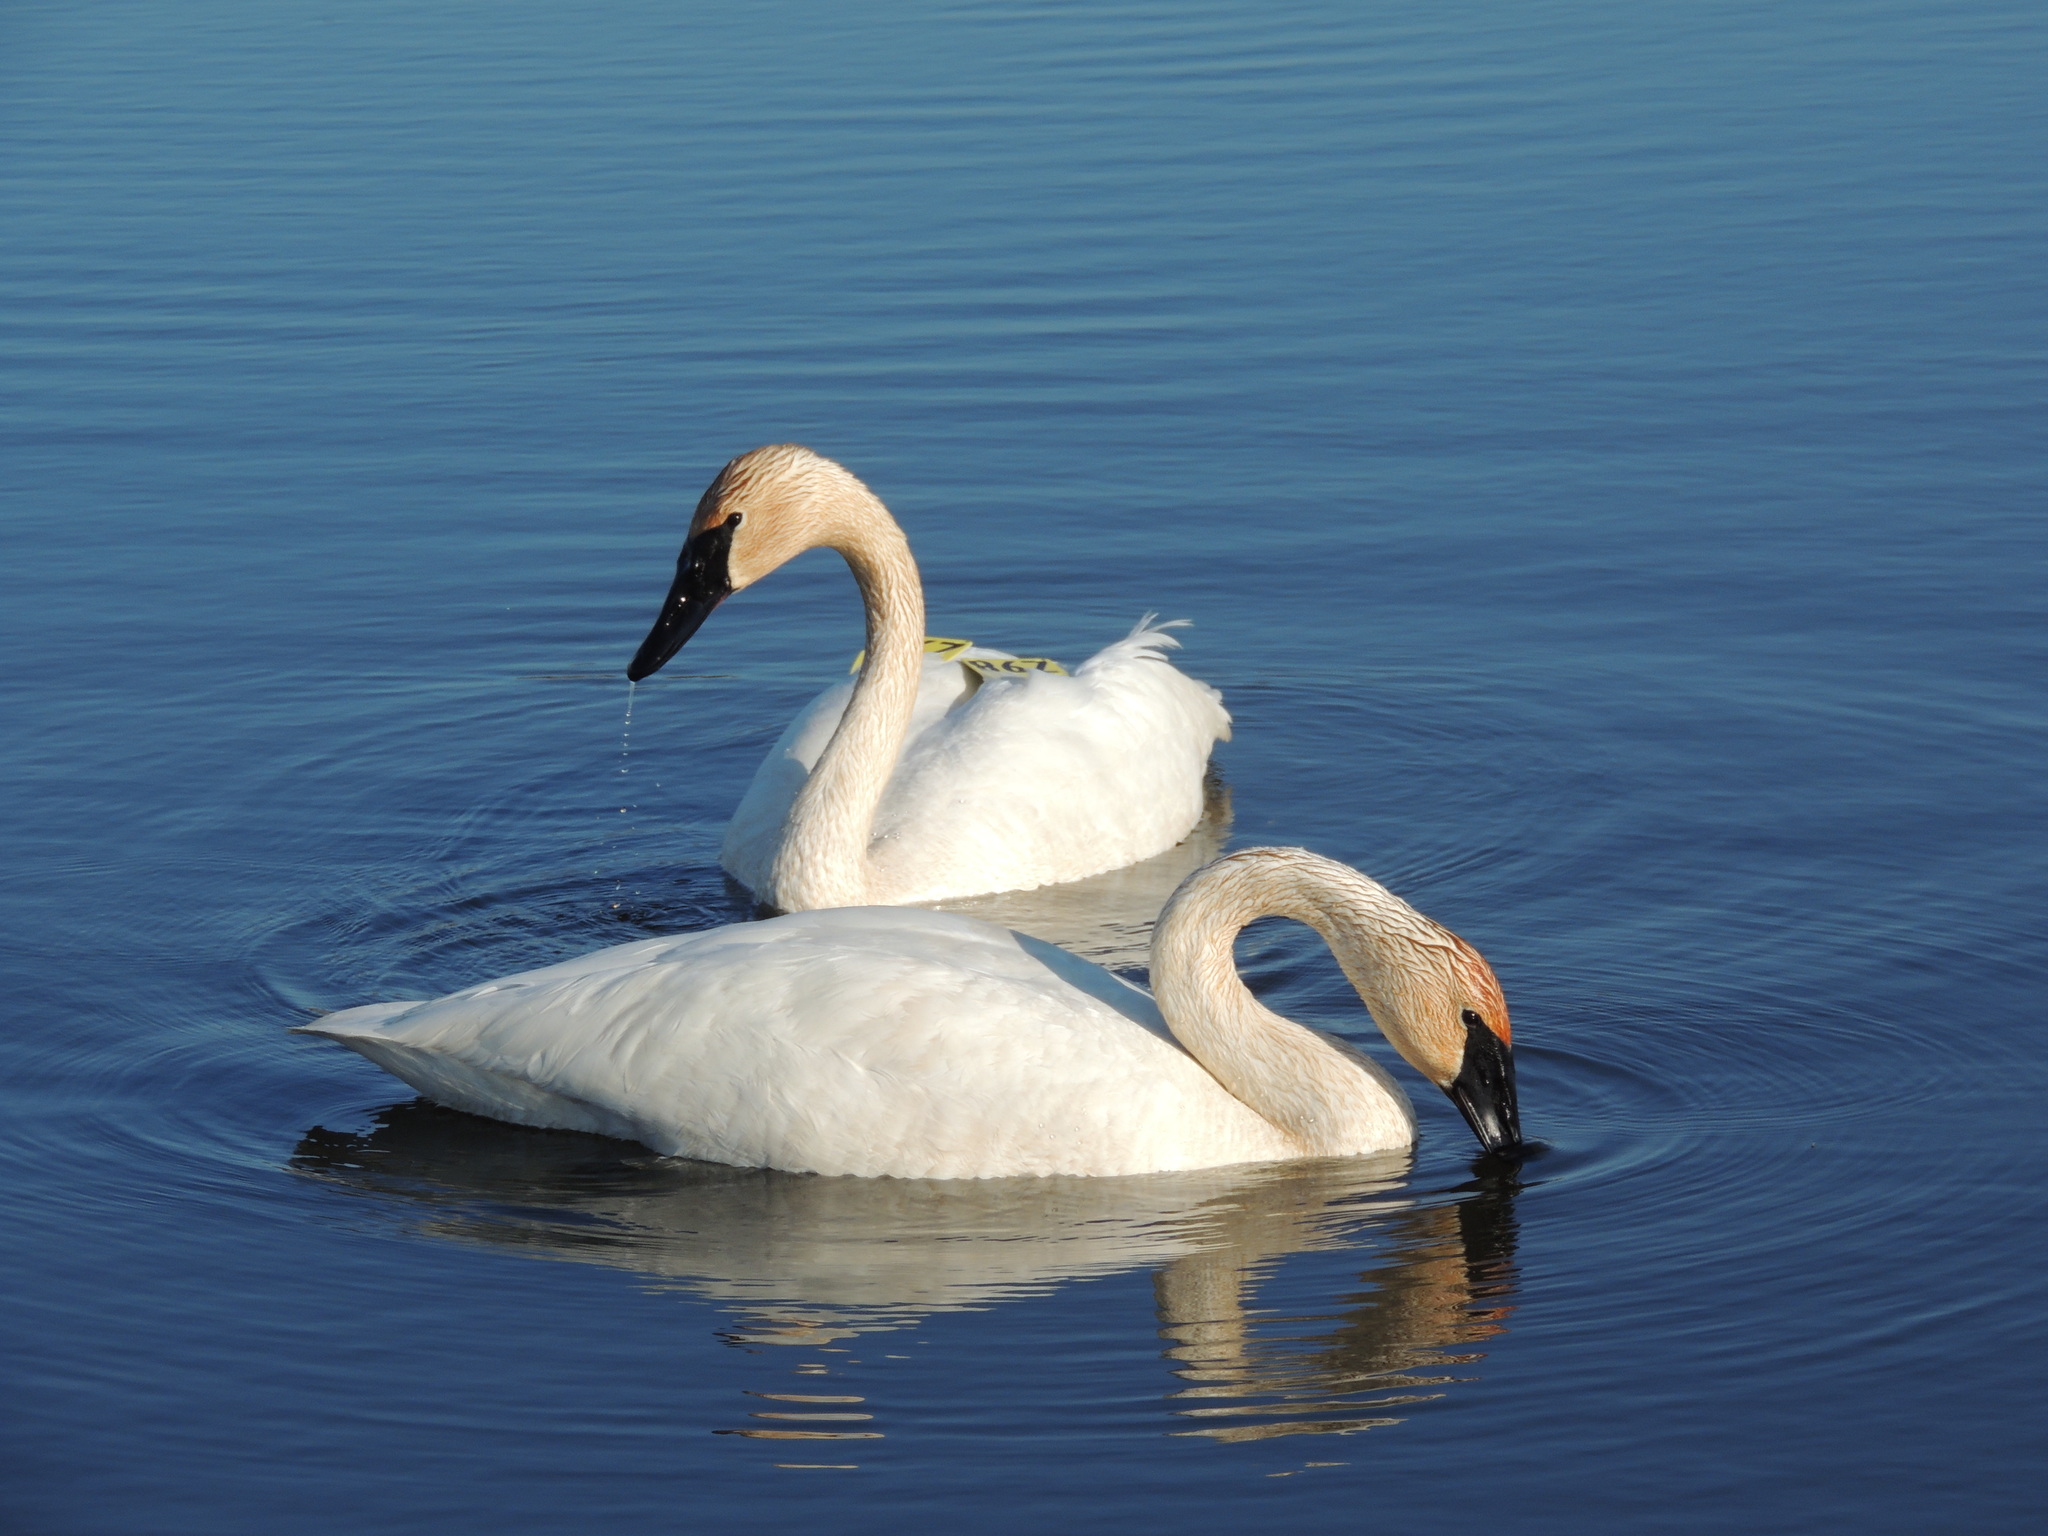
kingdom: Animalia
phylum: Chordata
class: Aves
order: Anseriformes
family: Anatidae
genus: Cygnus
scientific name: Cygnus buccinator
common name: Trumpeter swan
